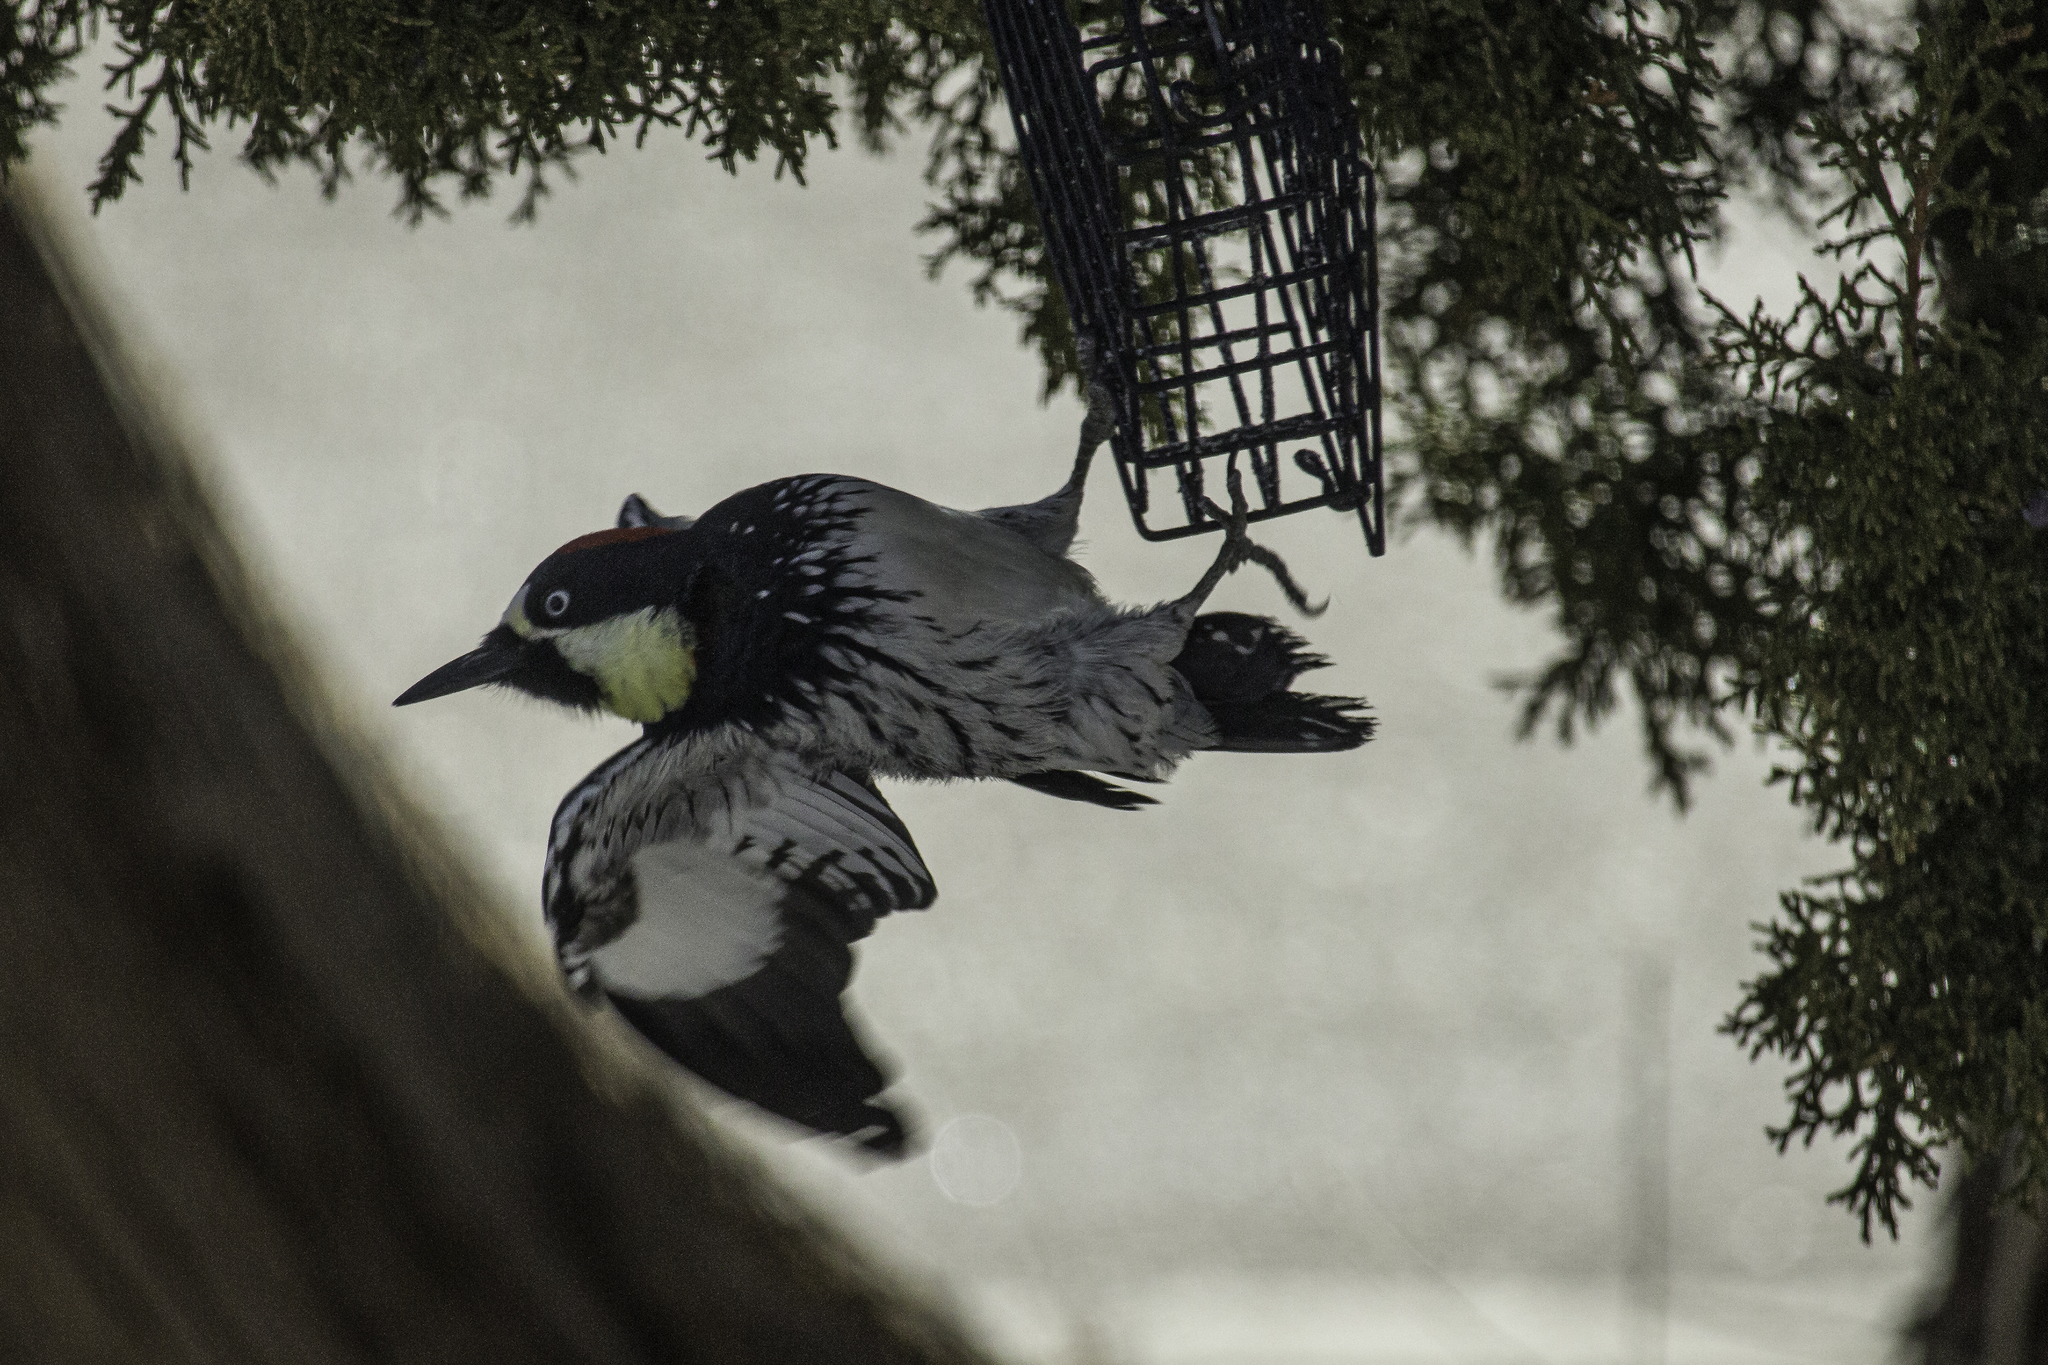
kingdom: Animalia
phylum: Chordata
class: Aves
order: Piciformes
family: Picidae
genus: Melanerpes
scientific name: Melanerpes formicivorus
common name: Acorn woodpecker
